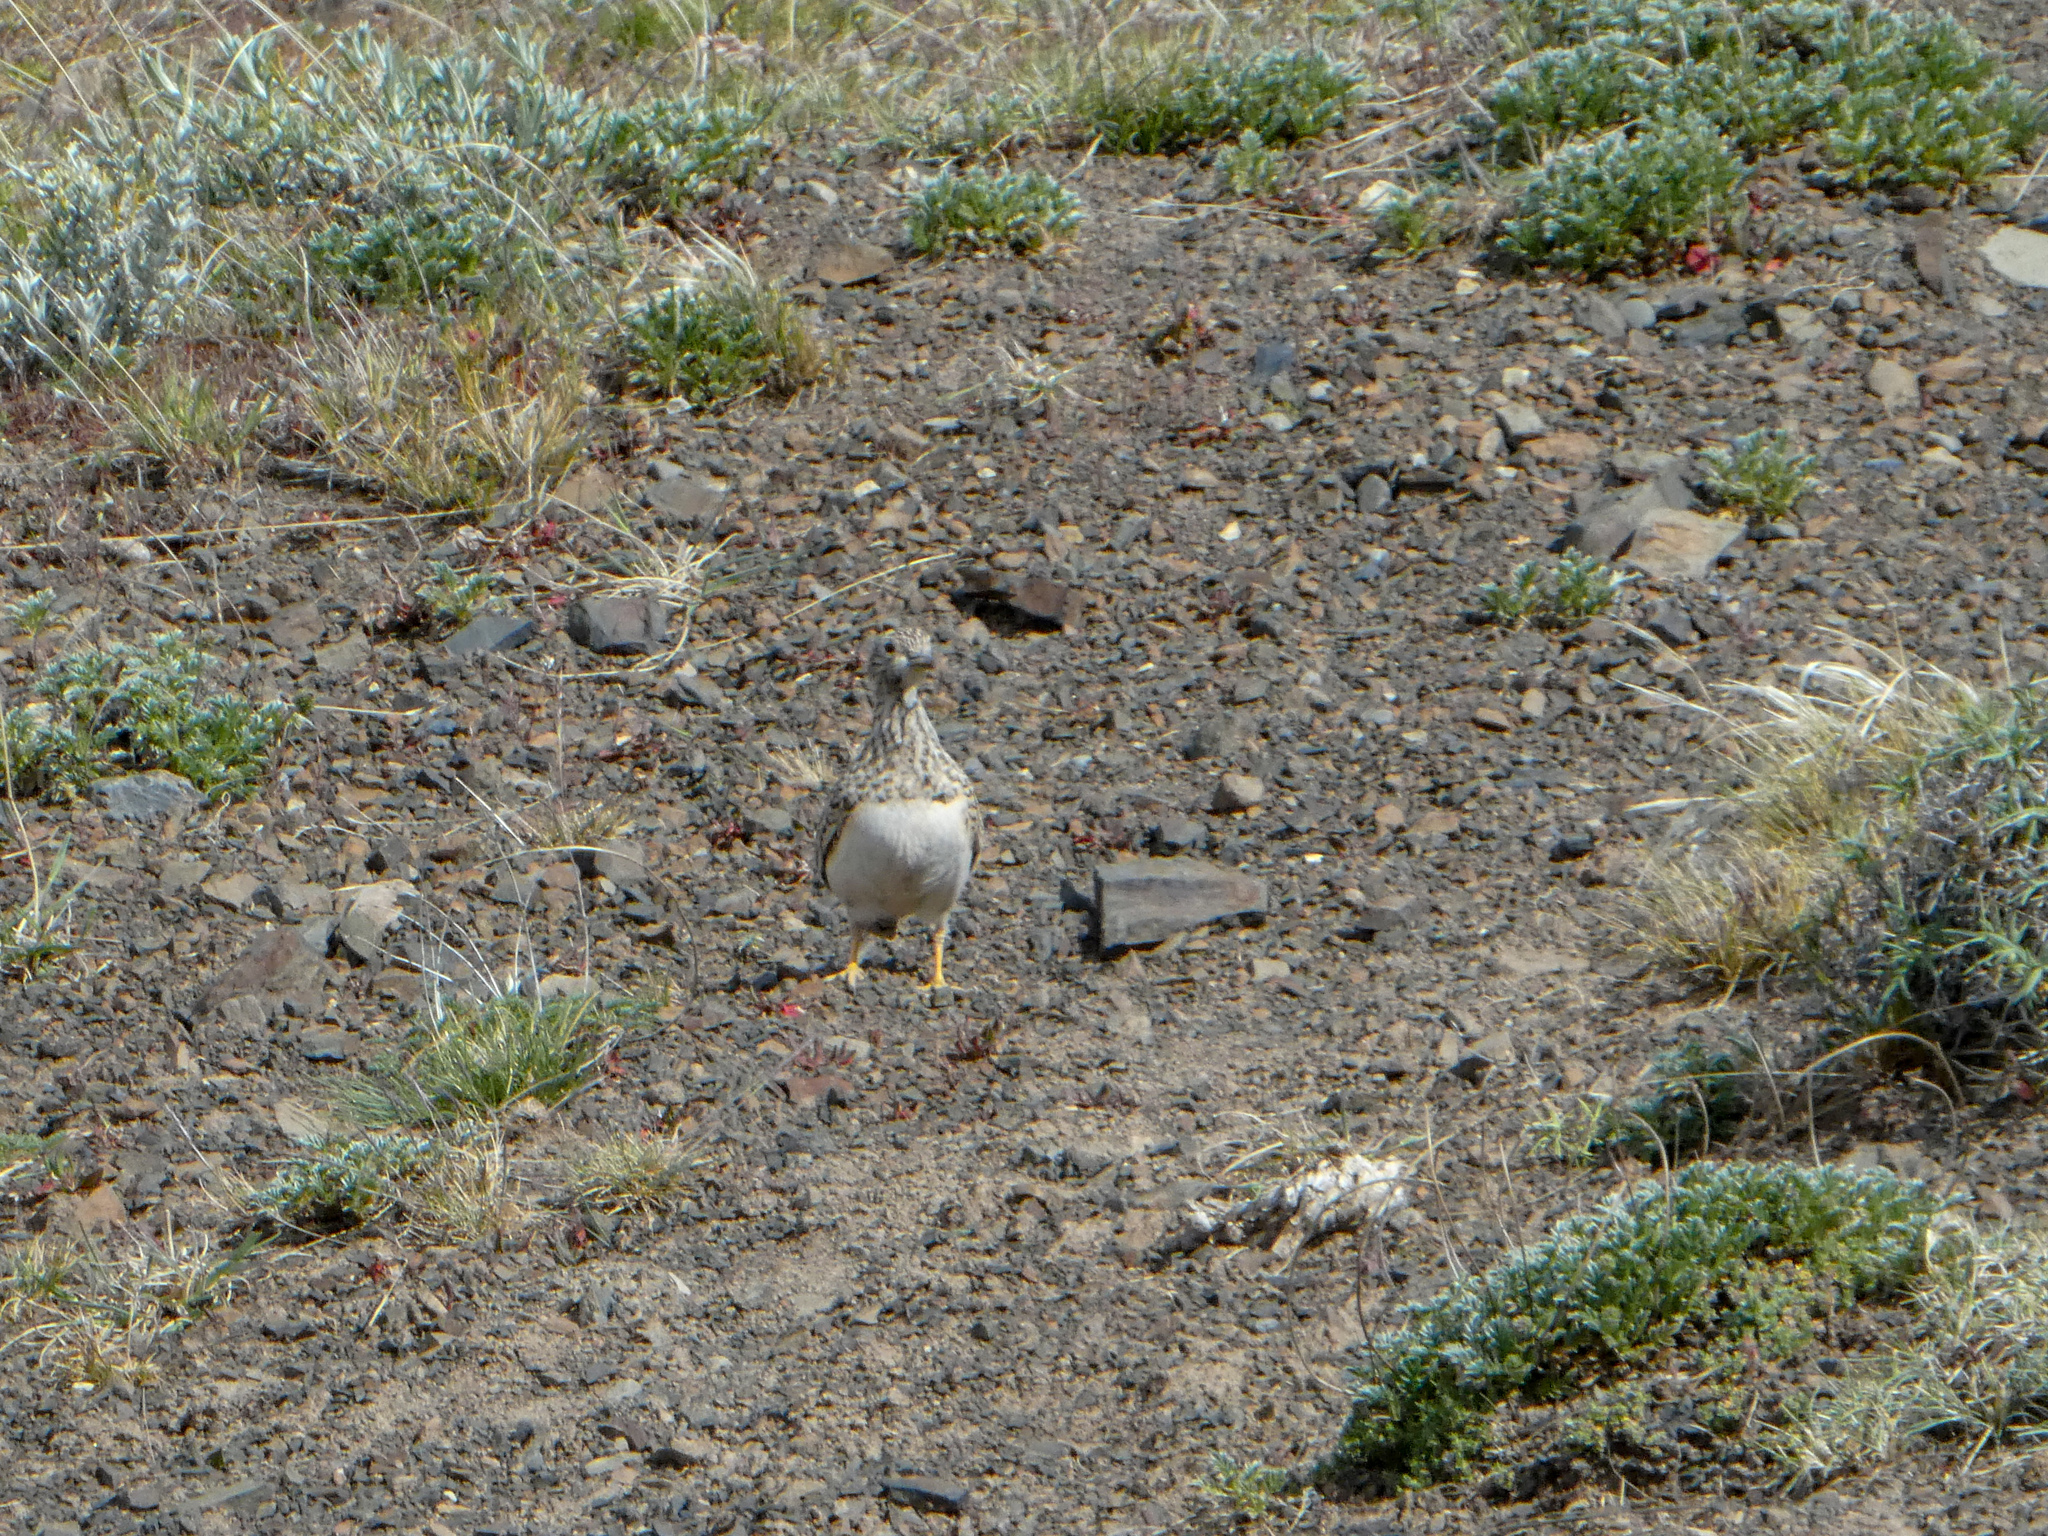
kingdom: Animalia
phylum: Chordata
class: Aves
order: Charadriiformes
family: Thinocoridae
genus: Thinocorus
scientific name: Thinocorus rumicivorus
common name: Least seedsnipe
